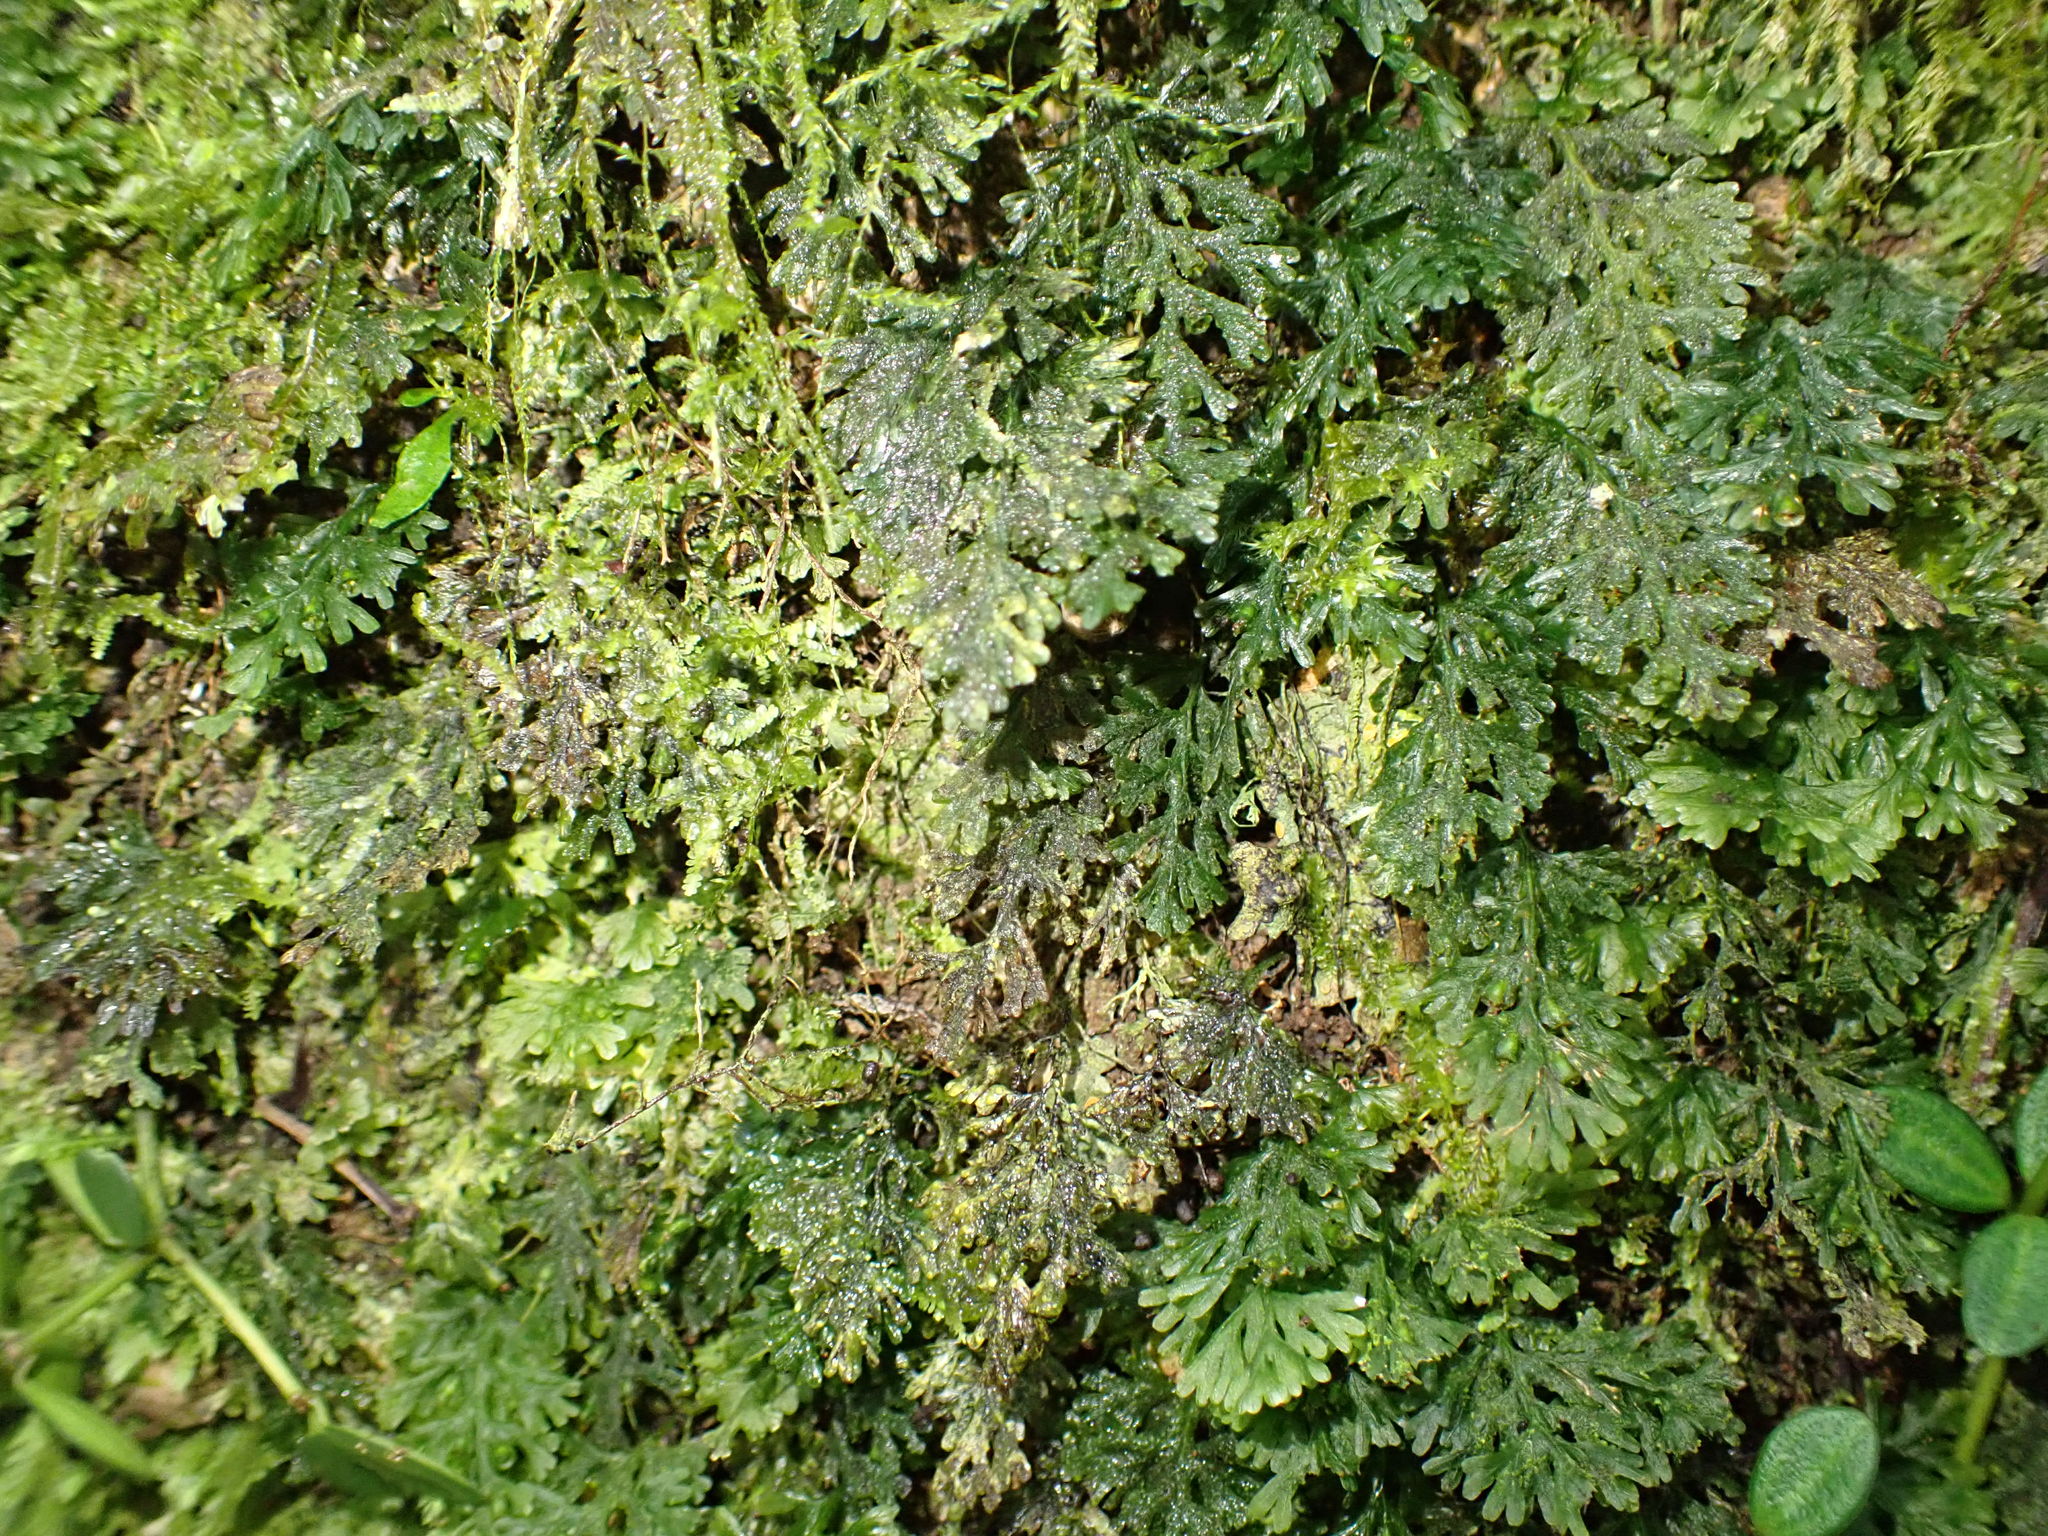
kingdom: Plantae
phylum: Tracheophyta
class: Polypodiopsida
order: Hymenophyllales
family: Hymenophyllaceae
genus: Hymenophyllum
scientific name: Hymenophyllum tunbrigense
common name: Tunbridge filmy fern
